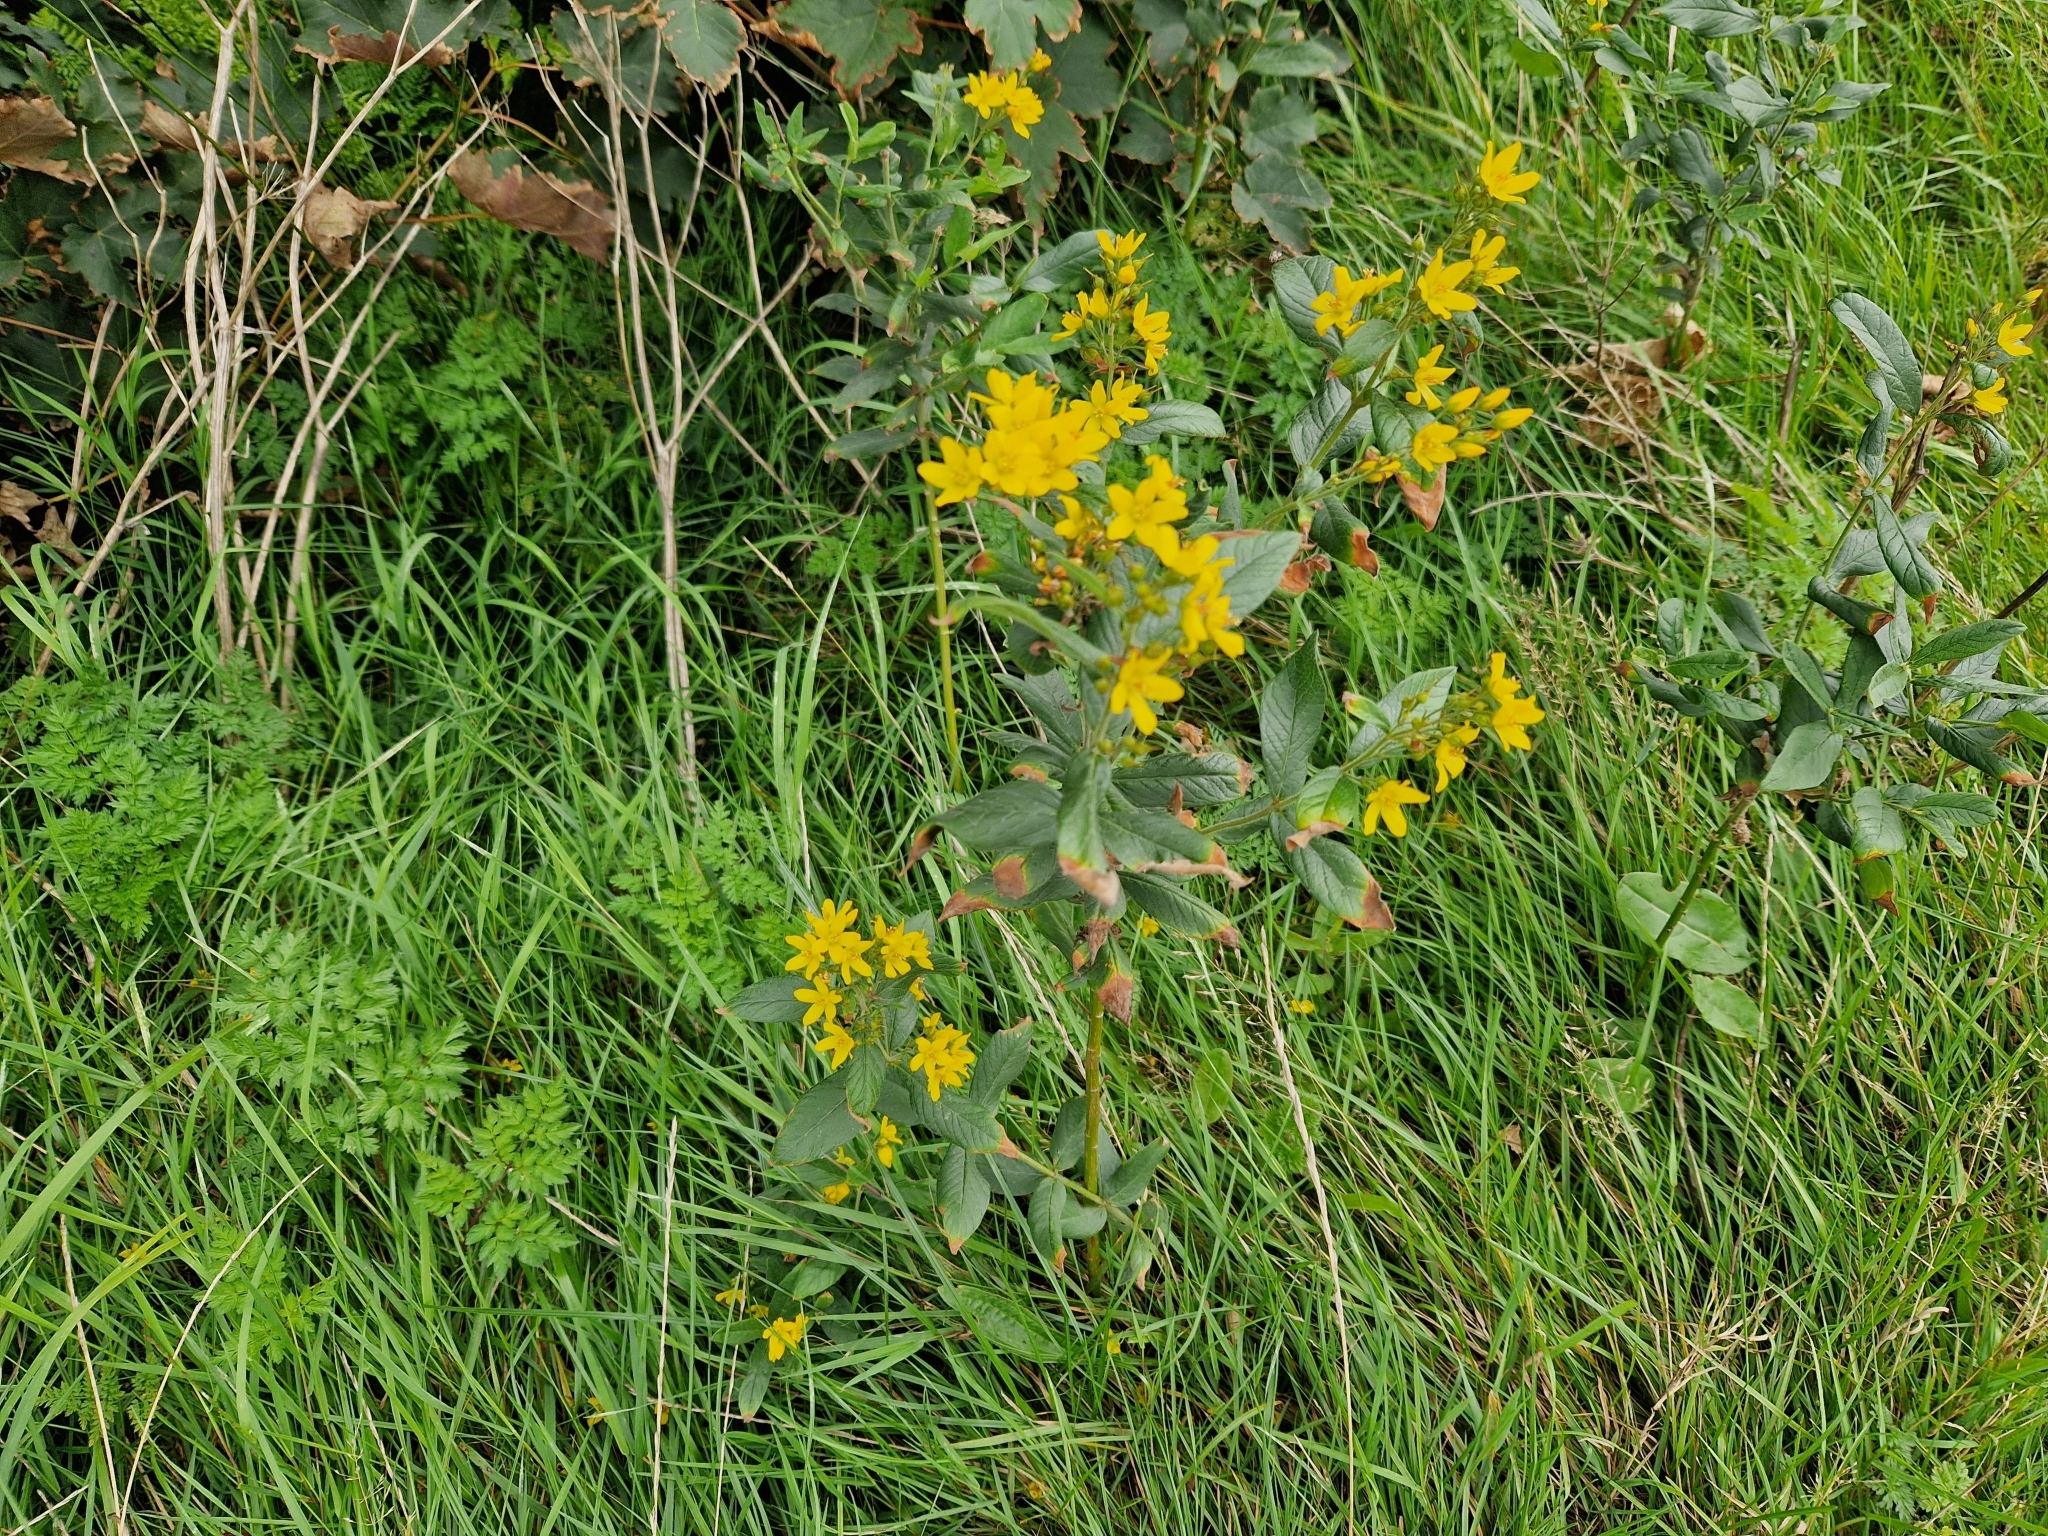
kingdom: Plantae
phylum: Tracheophyta
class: Magnoliopsida
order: Ericales
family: Primulaceae
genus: Lysimachia
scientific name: Lysimachia vulgaris
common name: Yellow loosestrife
